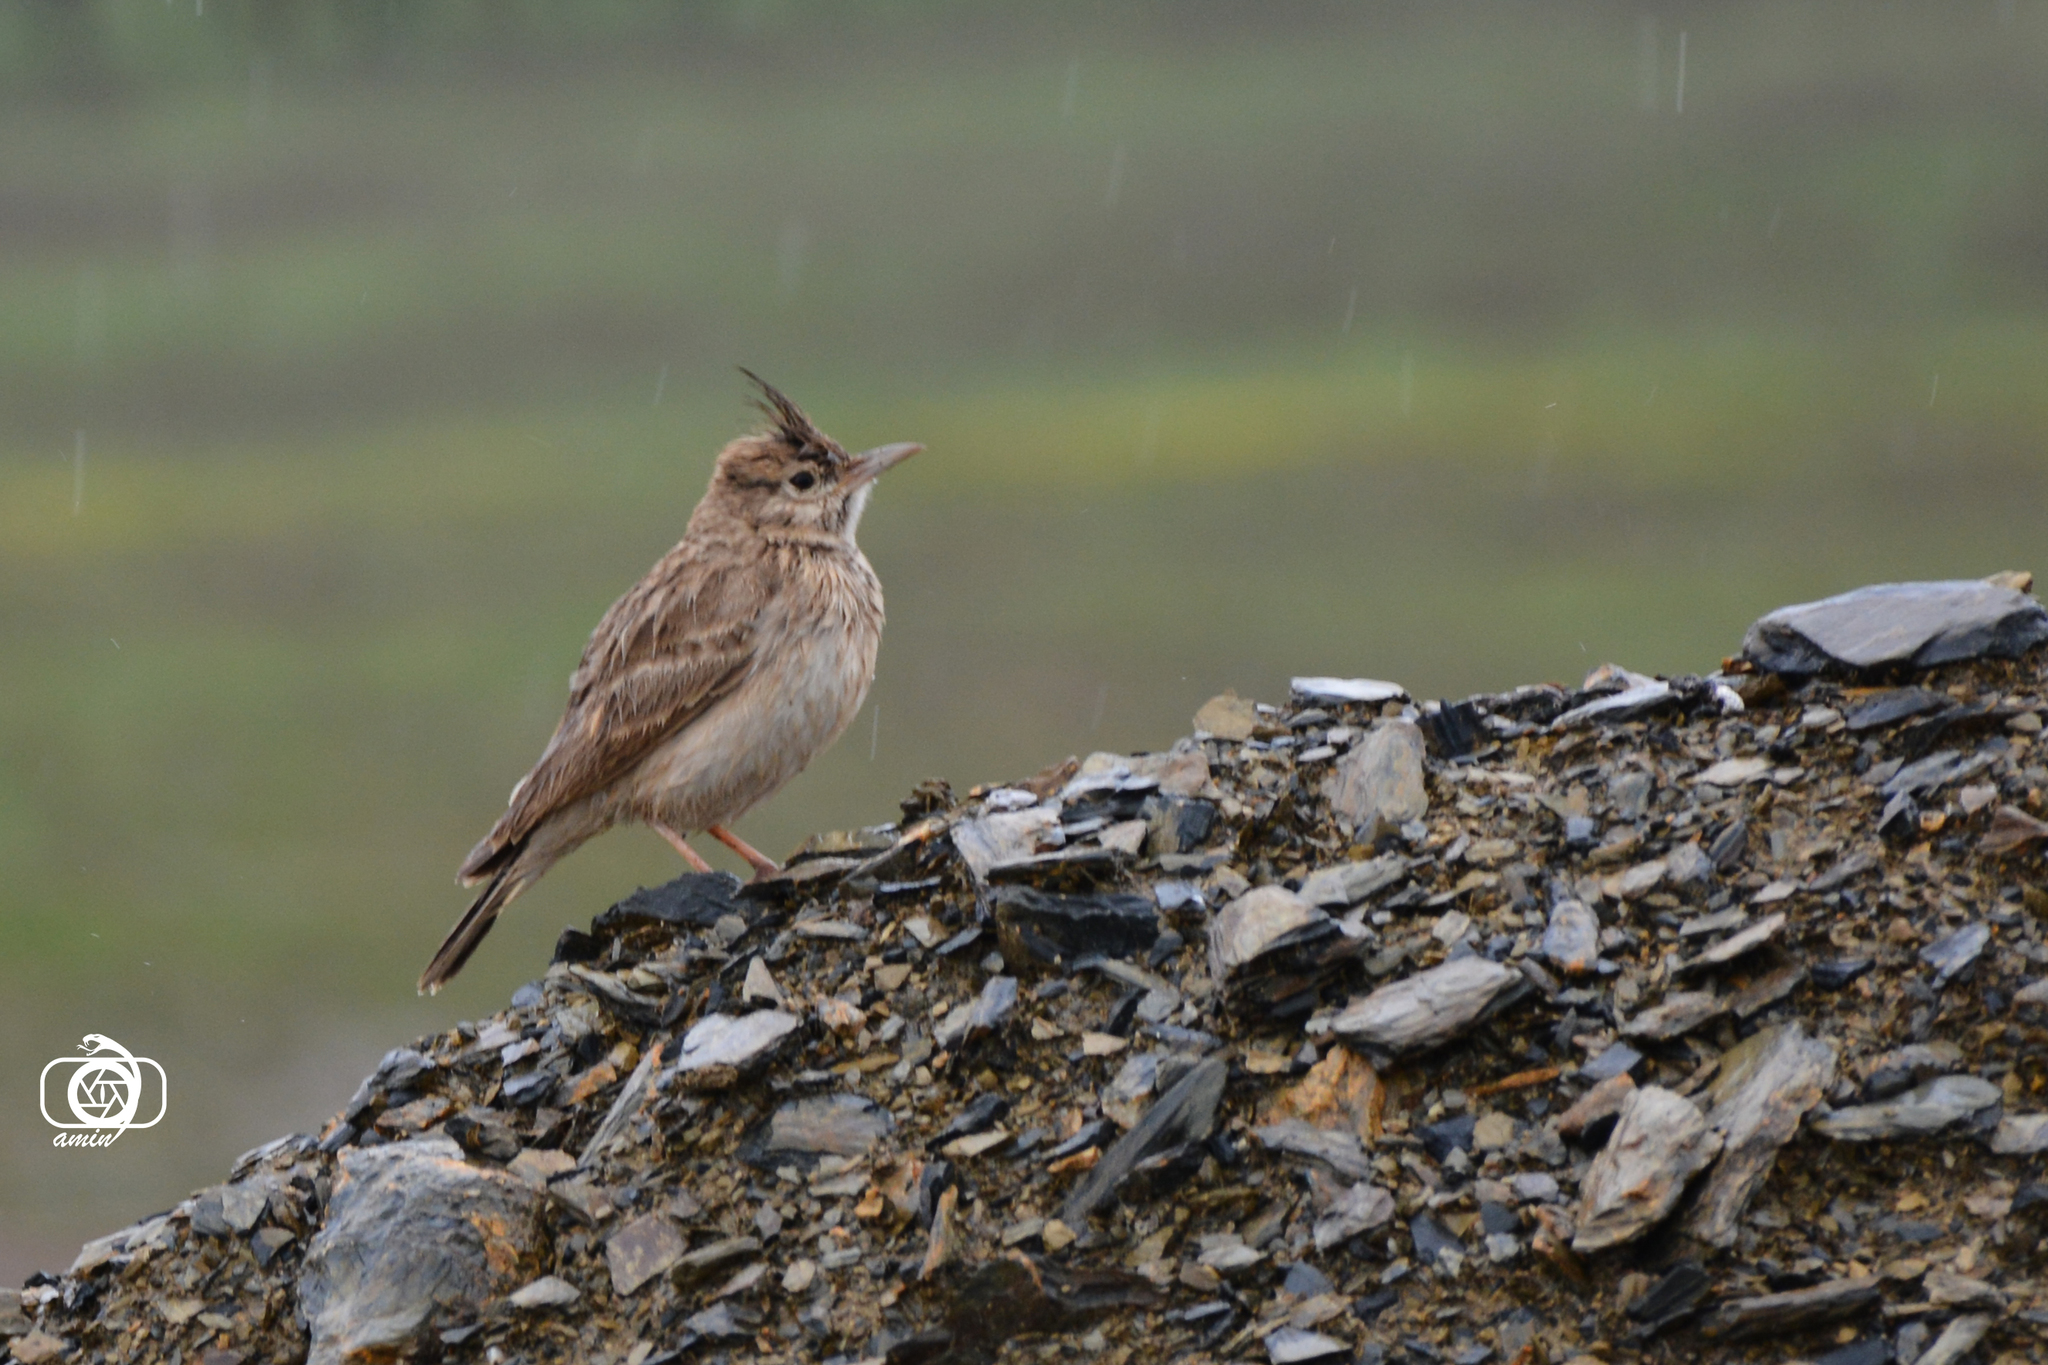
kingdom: Animalia
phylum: Chordata
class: Aves
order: Passeriformes
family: Alaudidae
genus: Galerida
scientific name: Galerida cristata
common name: Crested lark
